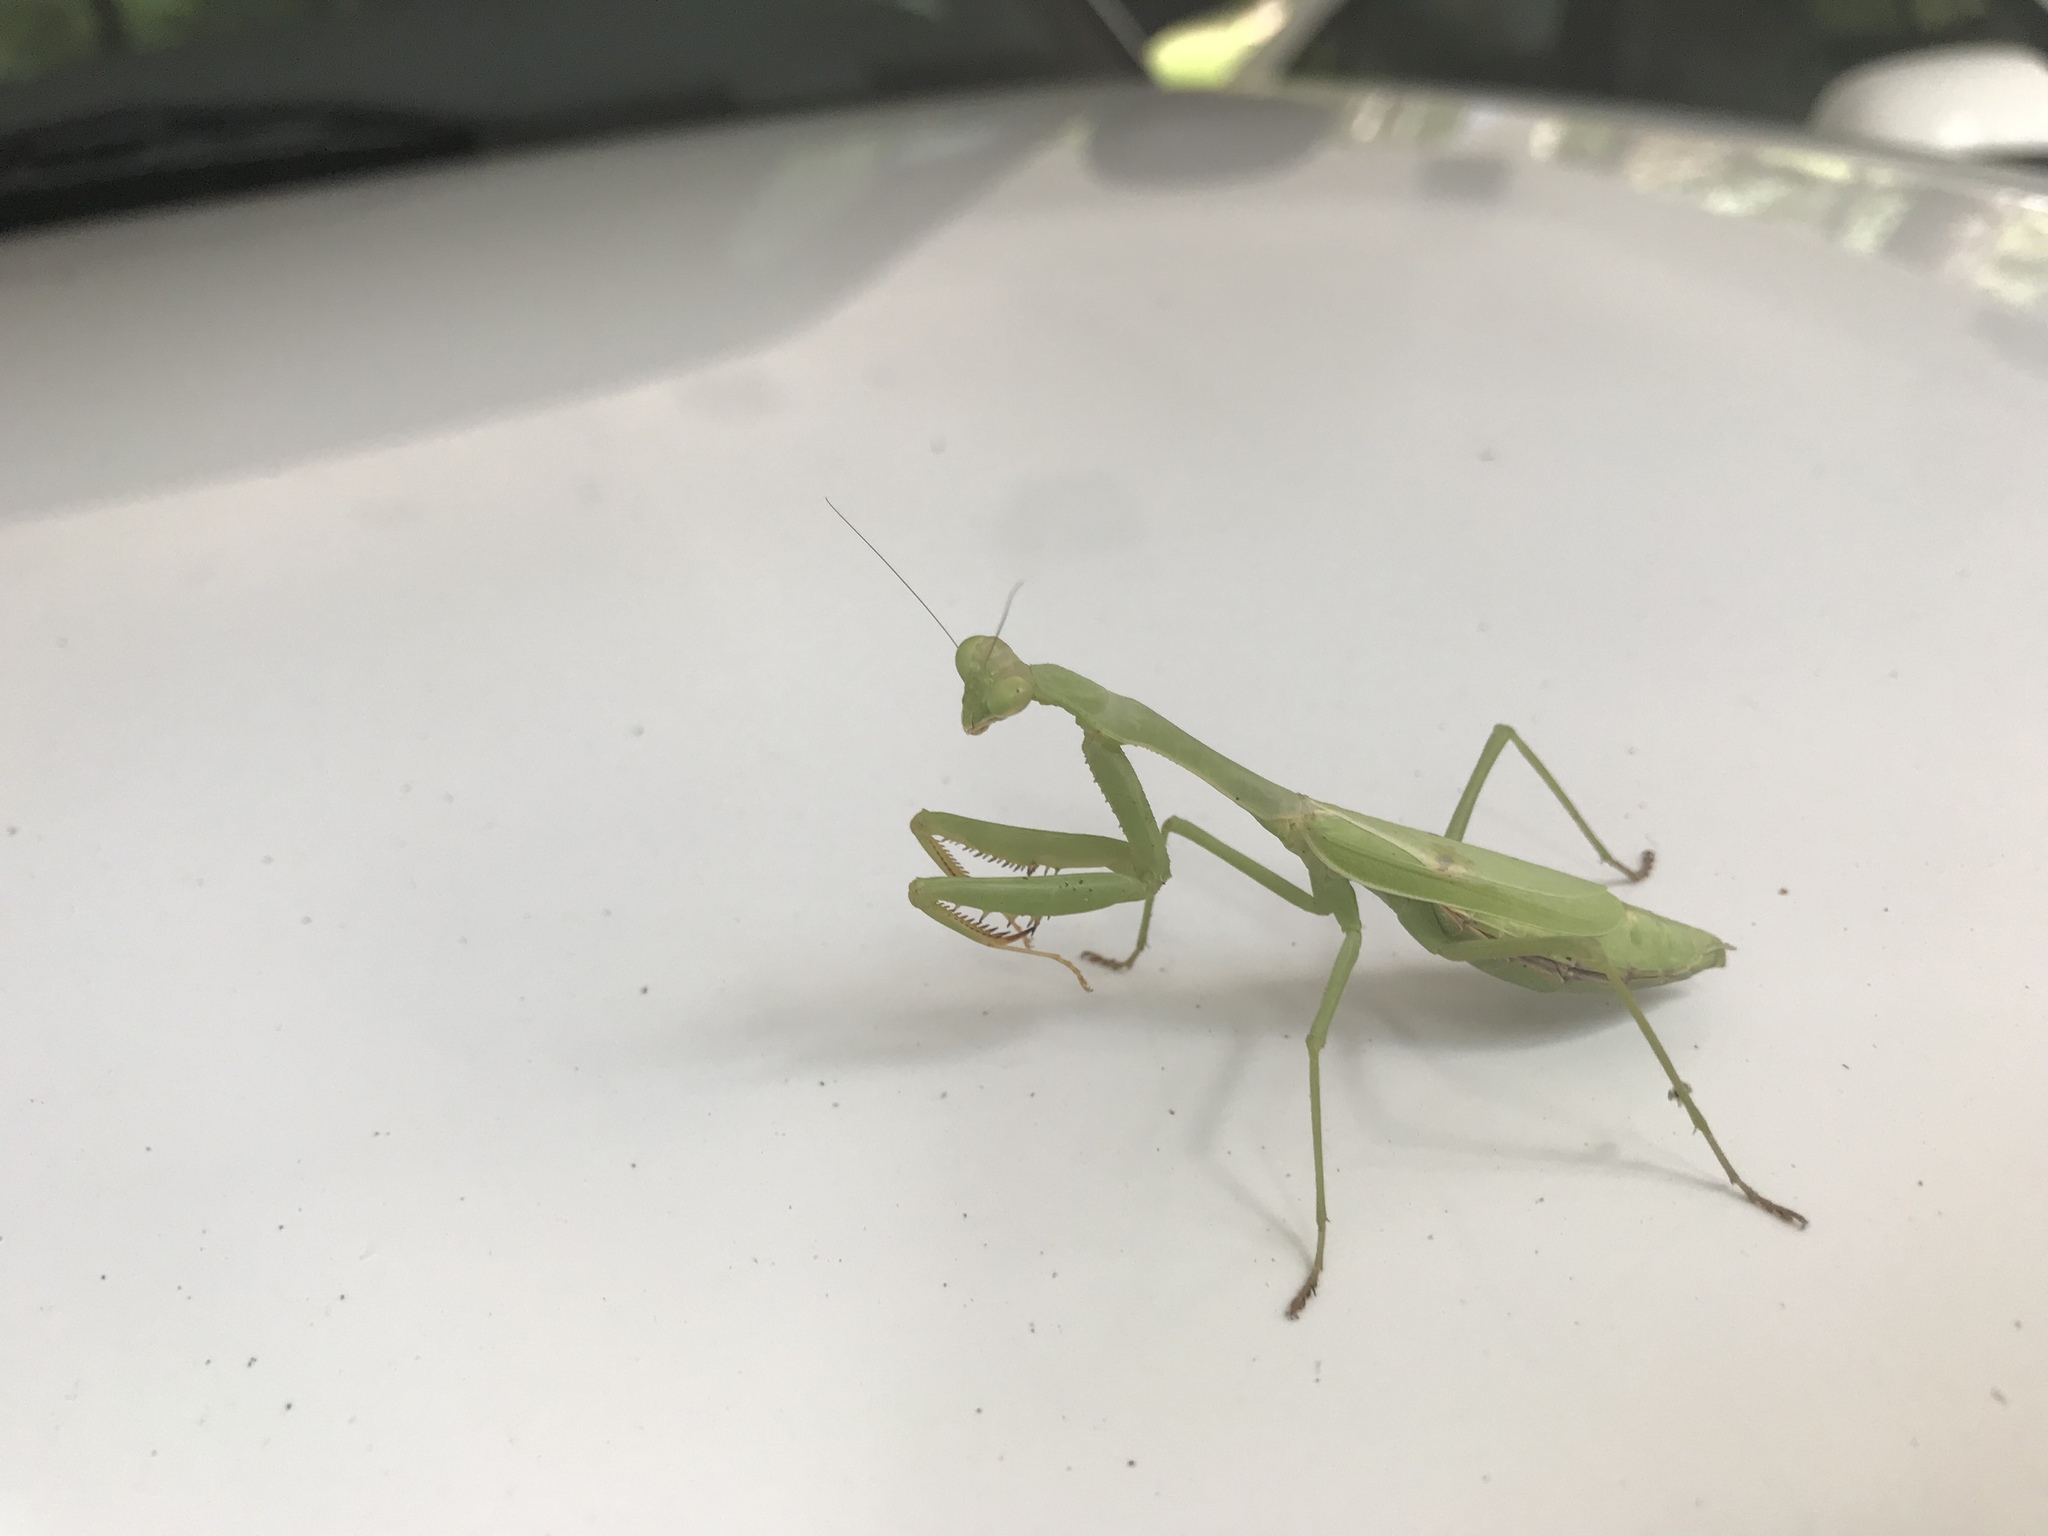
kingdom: Animalia
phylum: Arthropoda
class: Insecta
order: Mantodea
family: Mantidae
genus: Stagmomantis
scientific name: Stagmomantis carolina
